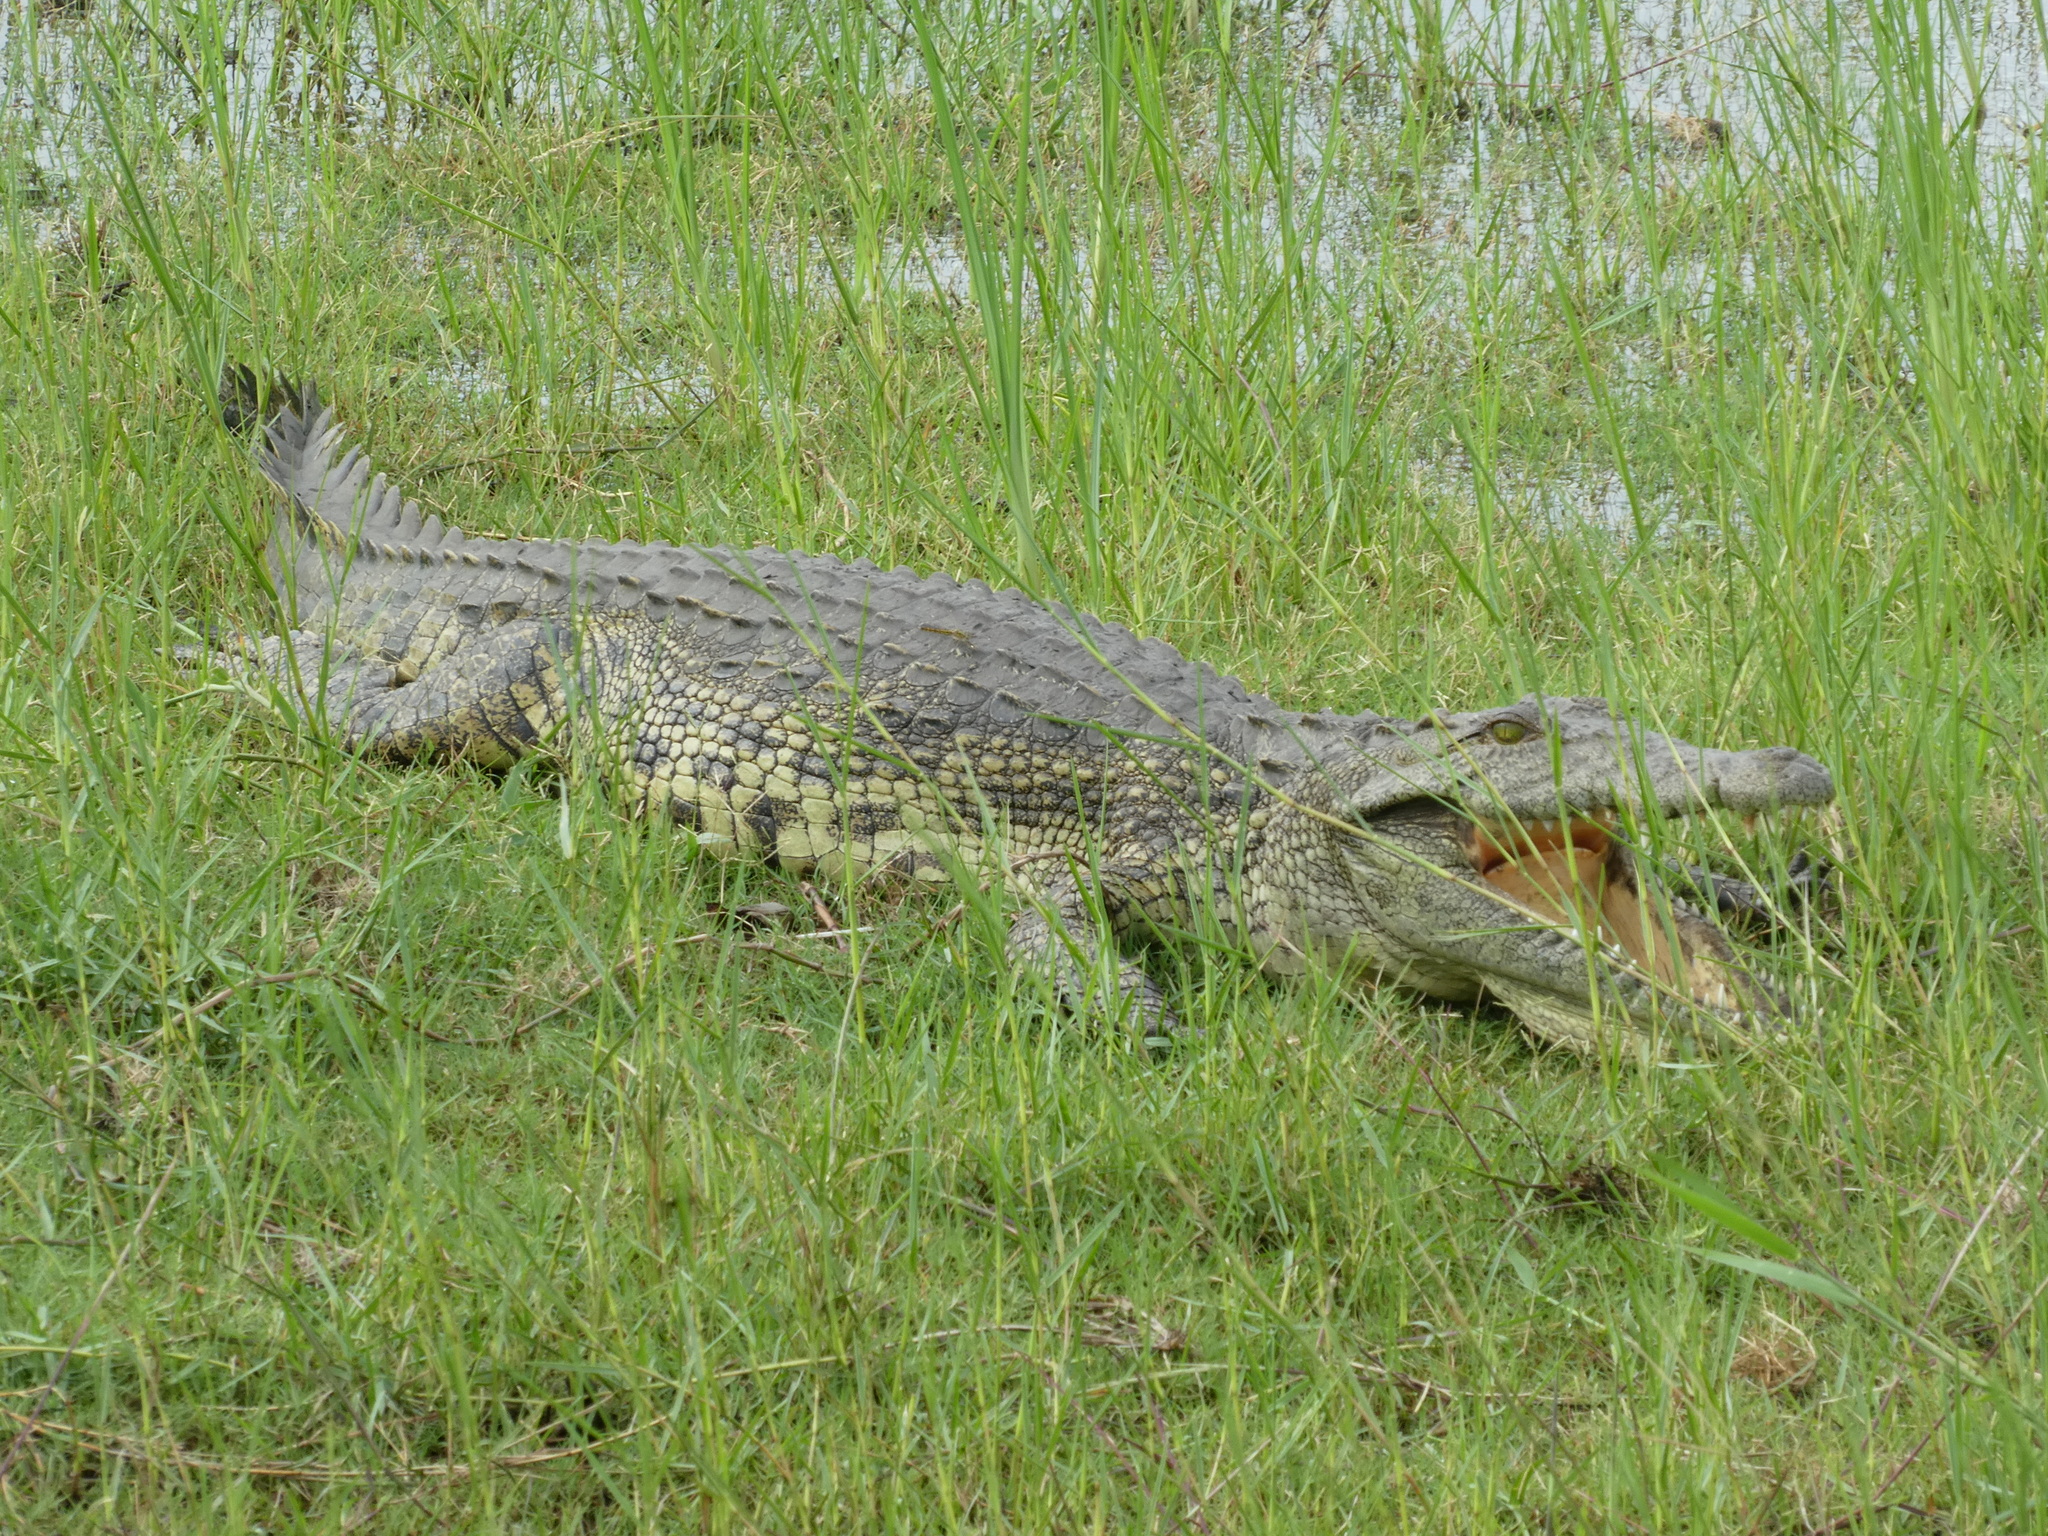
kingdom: Animalia
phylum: Chordata
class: Crocodylia
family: Crocodylidae
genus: Crocodylus
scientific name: Crocodylus niloticus
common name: Nile crocodile
